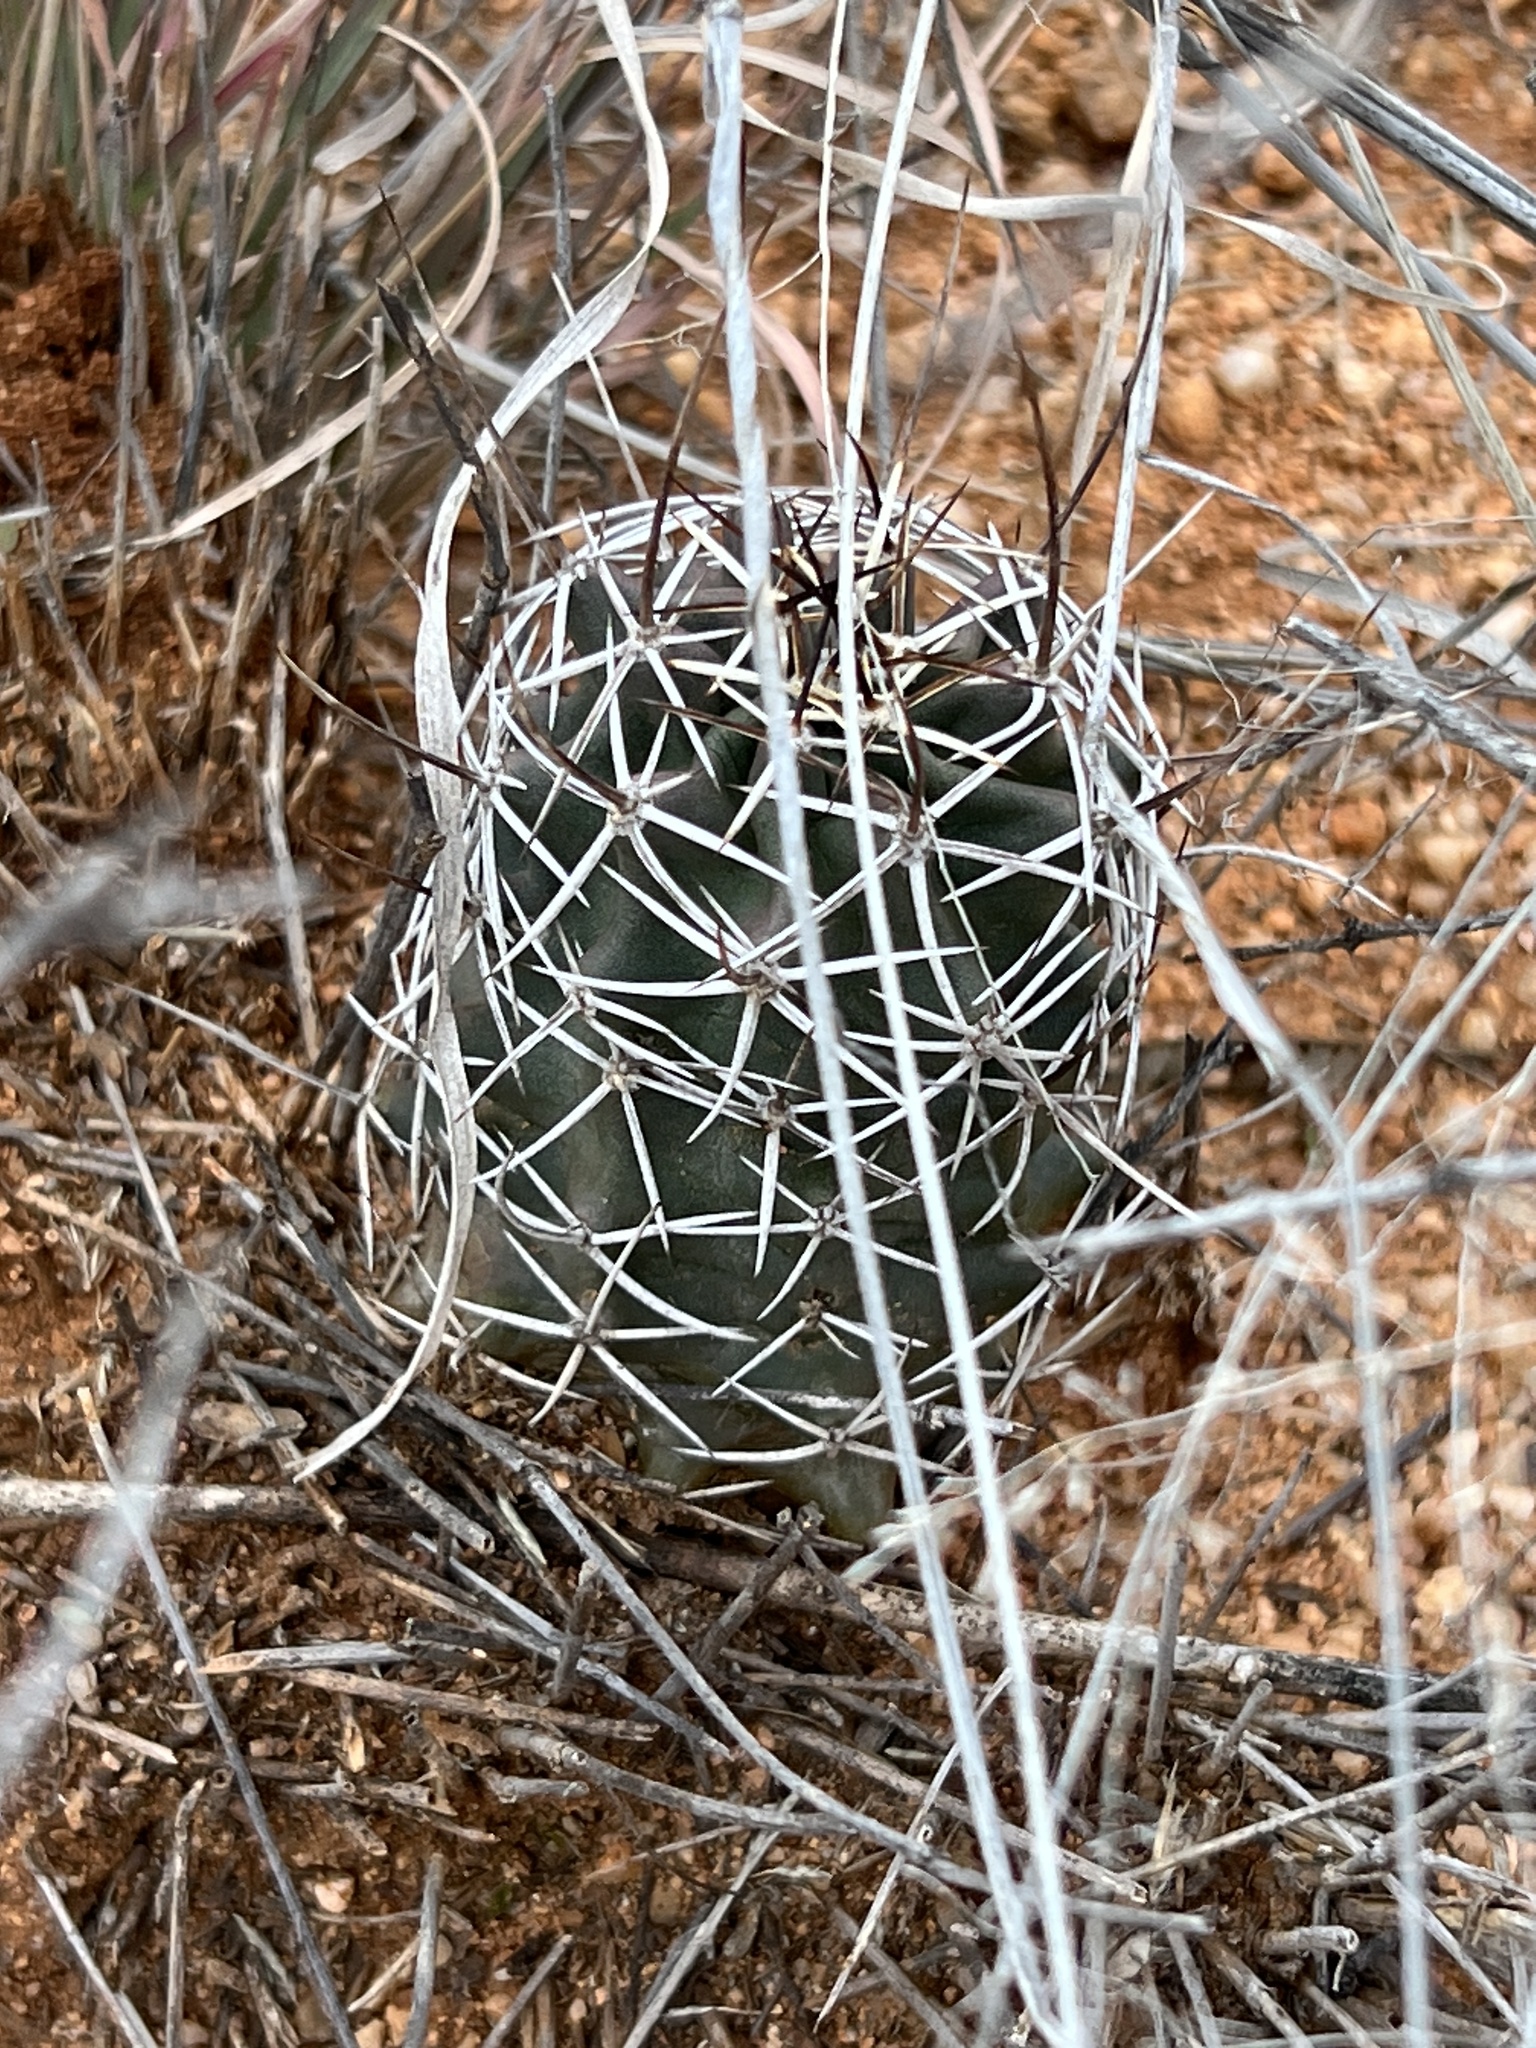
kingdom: Plantae
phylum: Tracheophyta
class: Magnoliopsida
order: Caryophyllales
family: Cactaceae
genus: Echinocereus
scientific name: Echinocereus fendleri
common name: Fendler's hedgehog cactus
